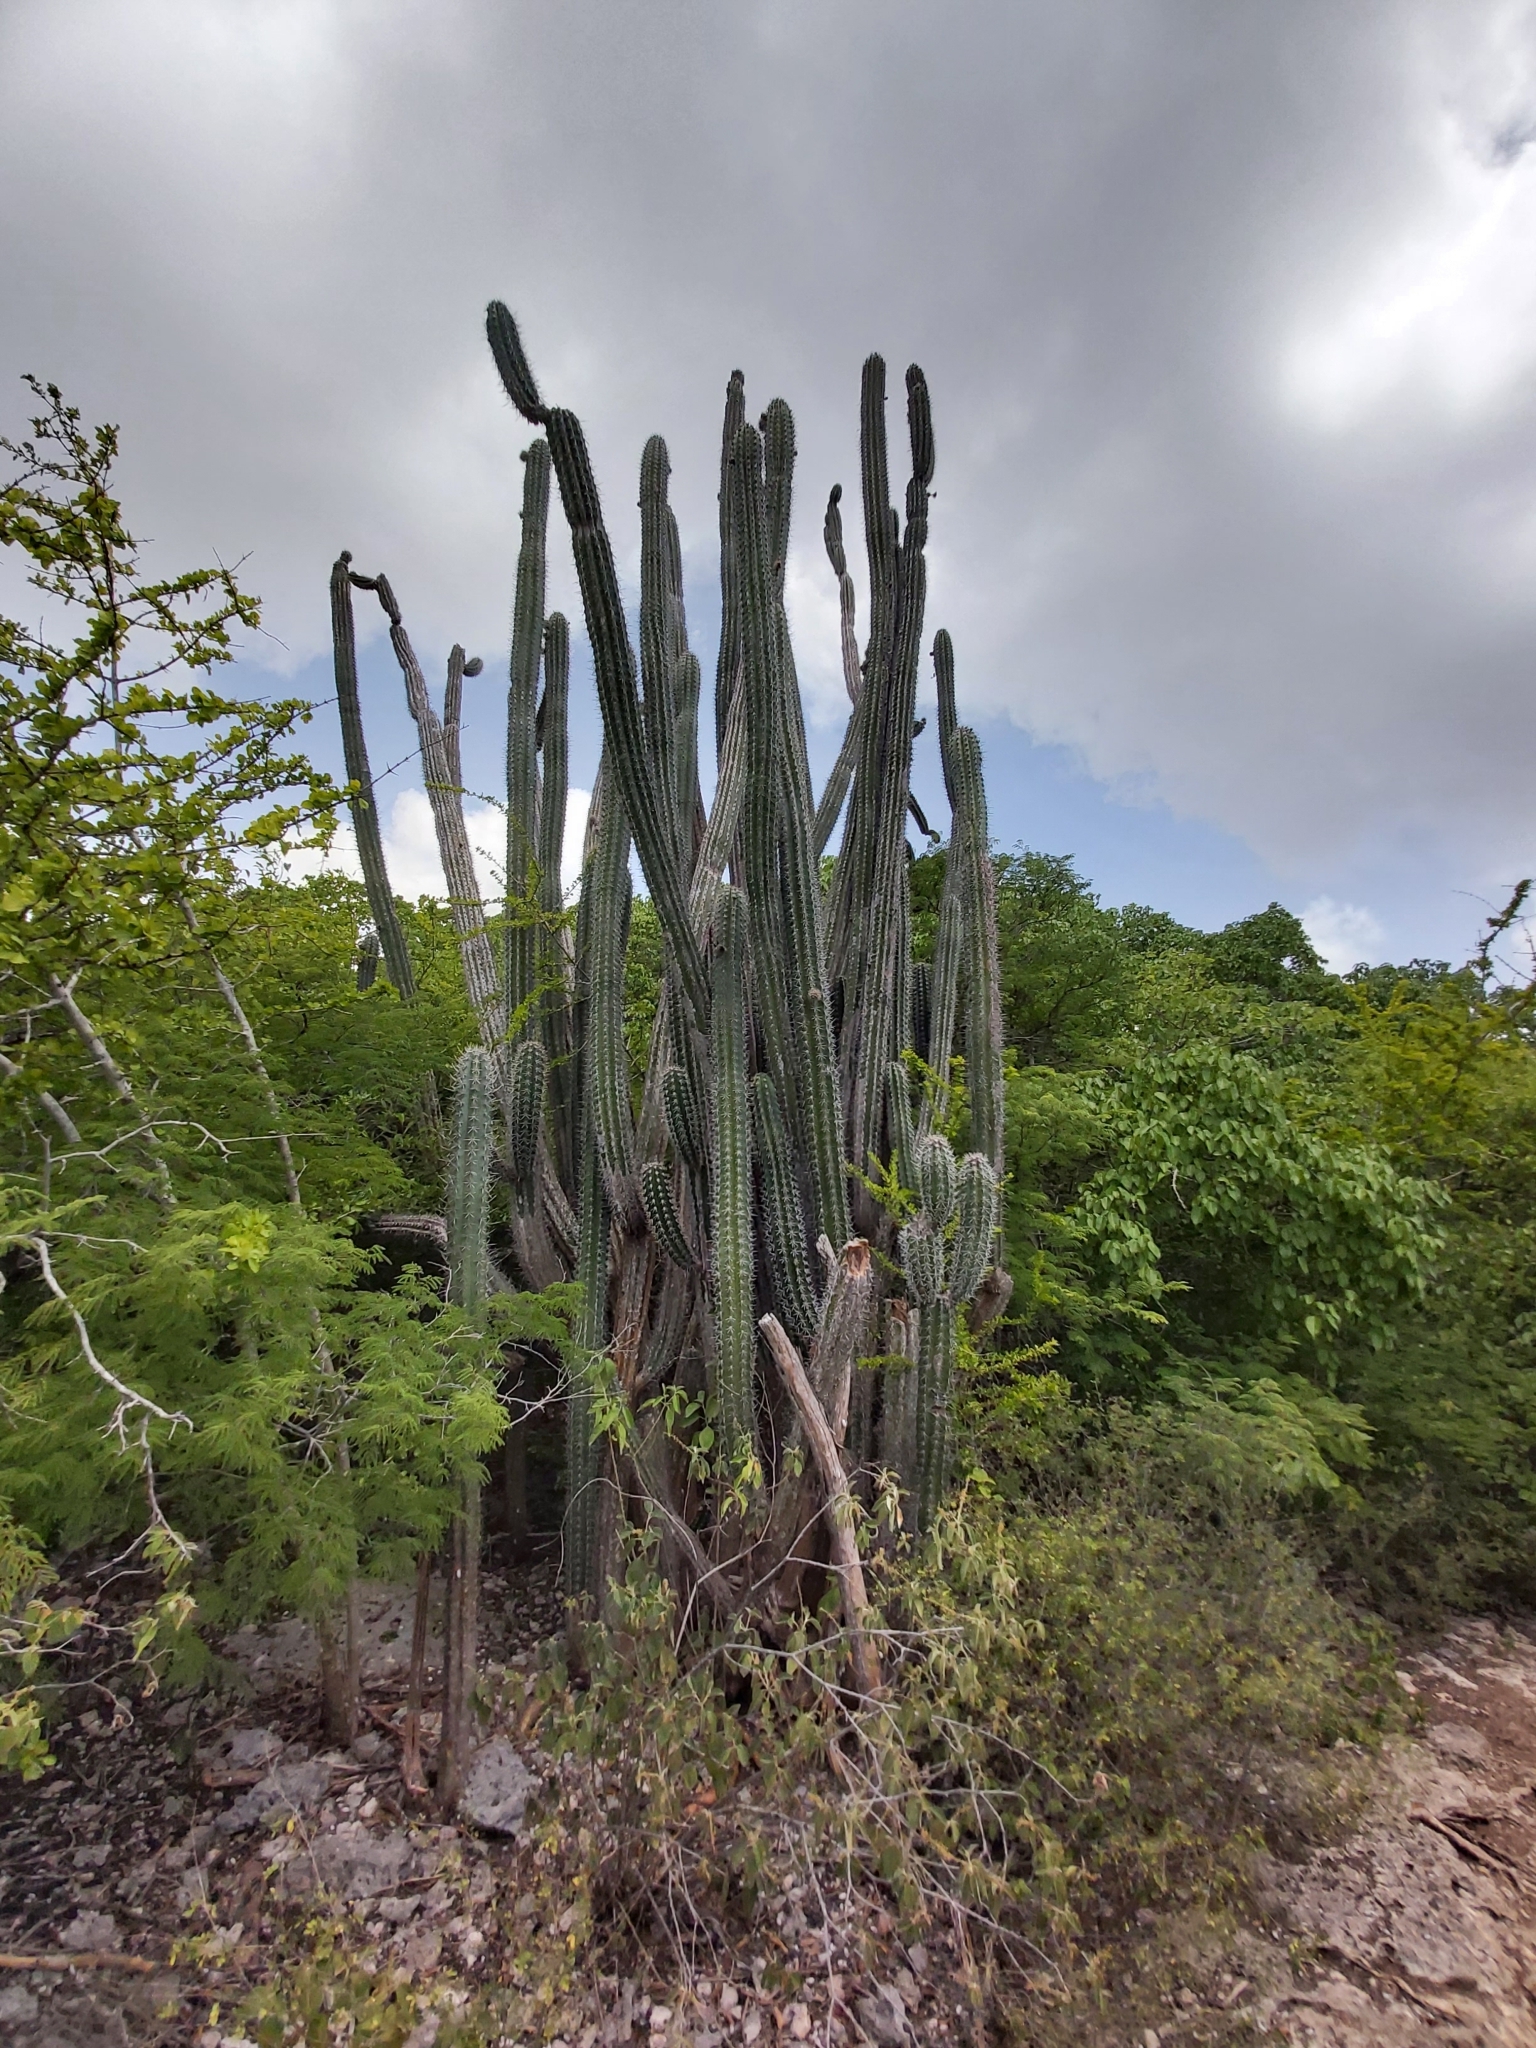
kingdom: Plantae
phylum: Tracheophyta
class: Magnoliopsida
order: Caryophyllales
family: Cactaceae
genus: Stenocereus
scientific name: Stenocereus griseus
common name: Tall candelabra cactus
